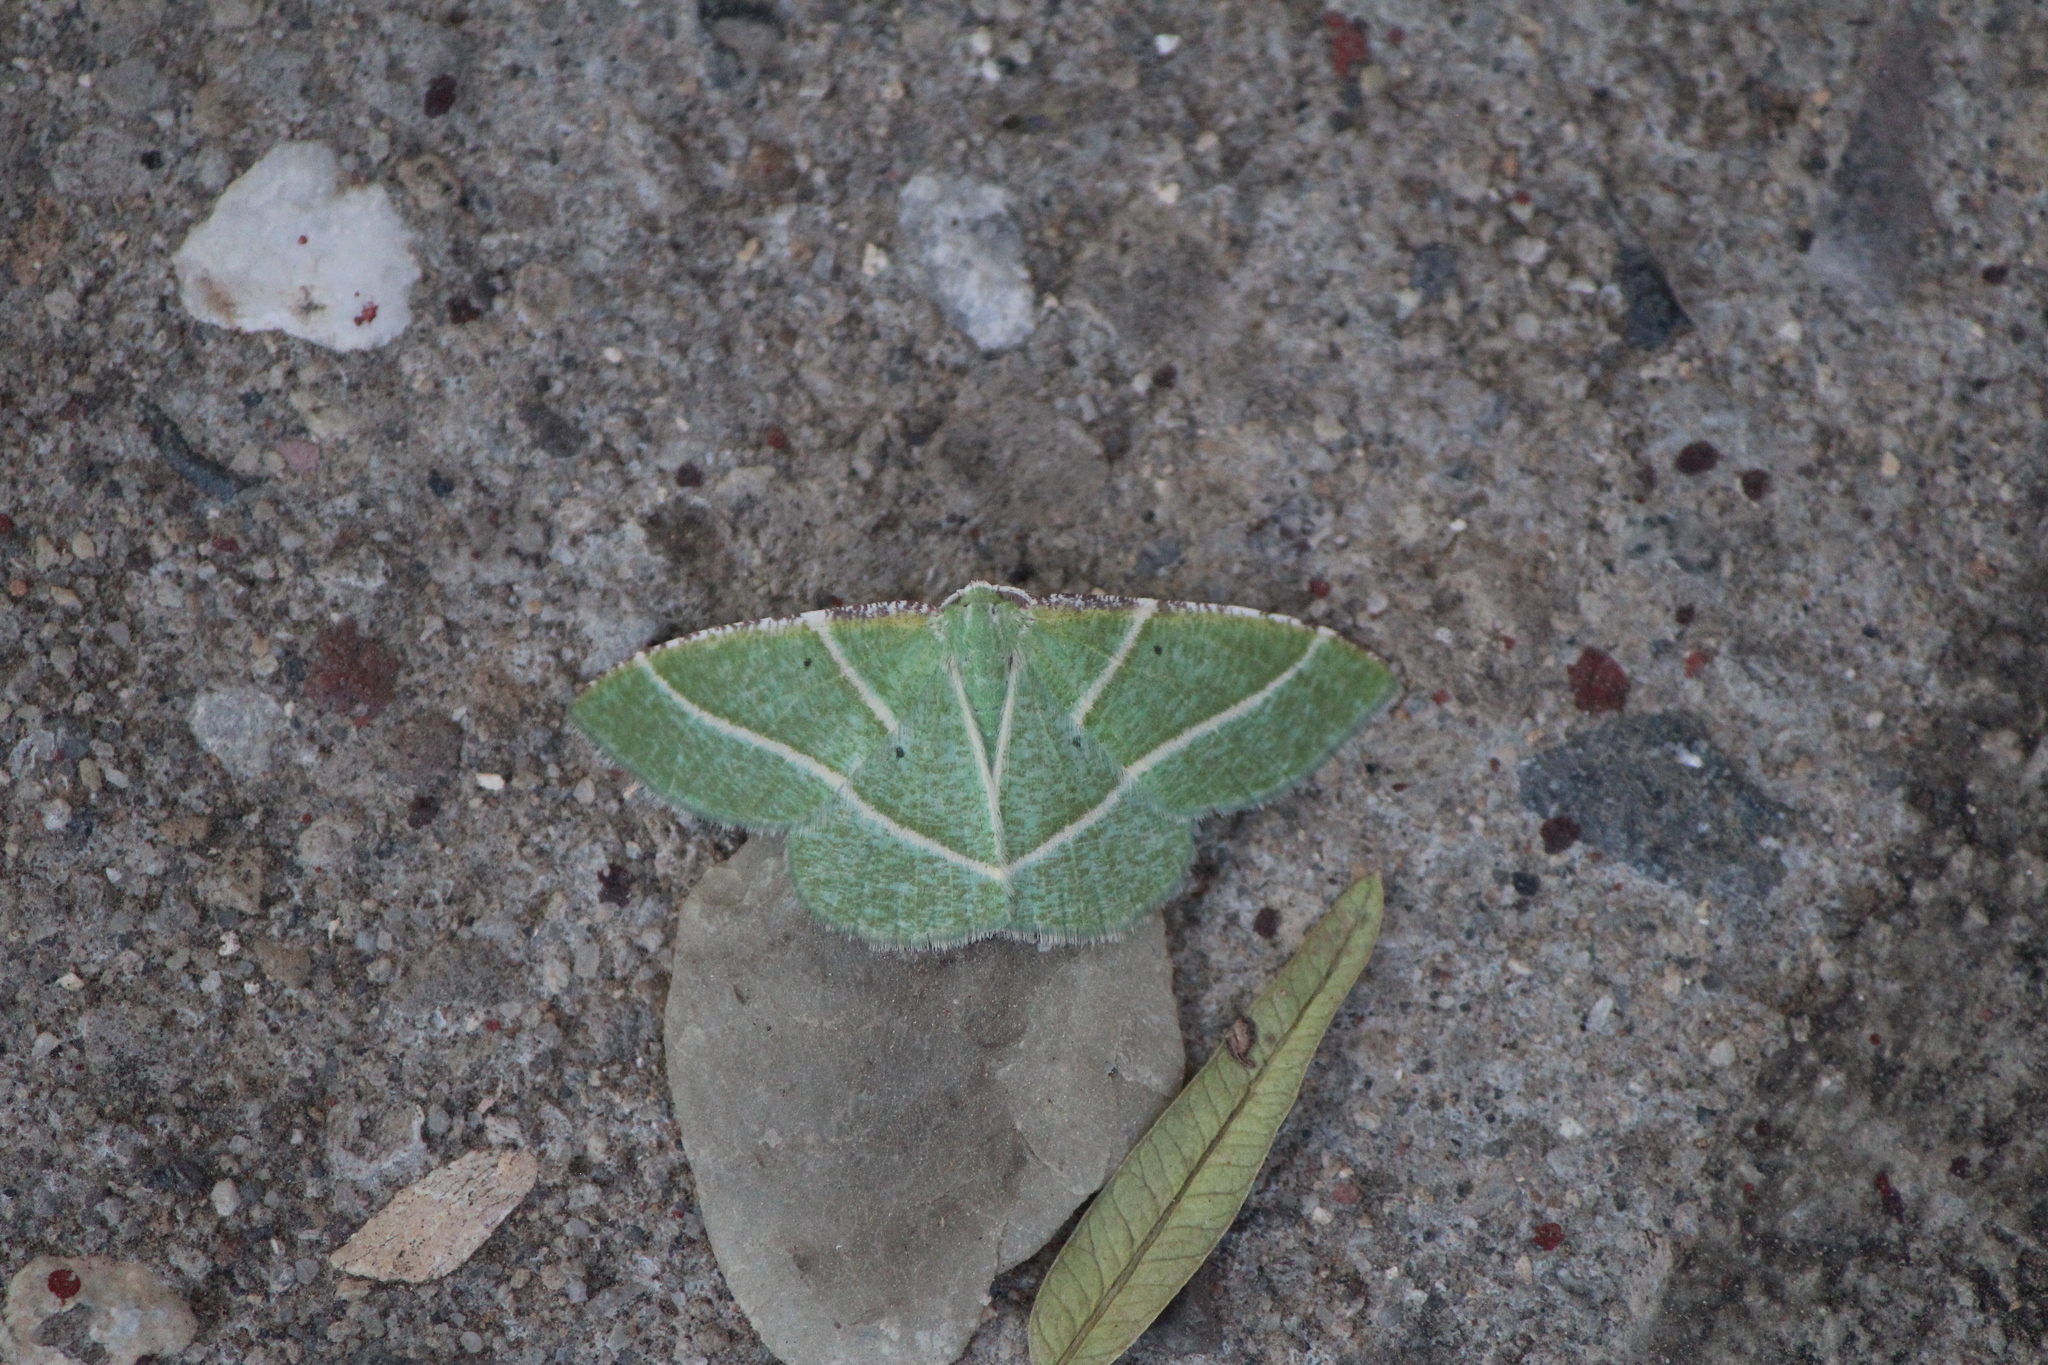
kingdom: Animalia
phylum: Arthropoda
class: Insecta
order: Lepidoptera
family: Geometridae
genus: Dichorda
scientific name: Dichorda iridaria
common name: Showy emerald
